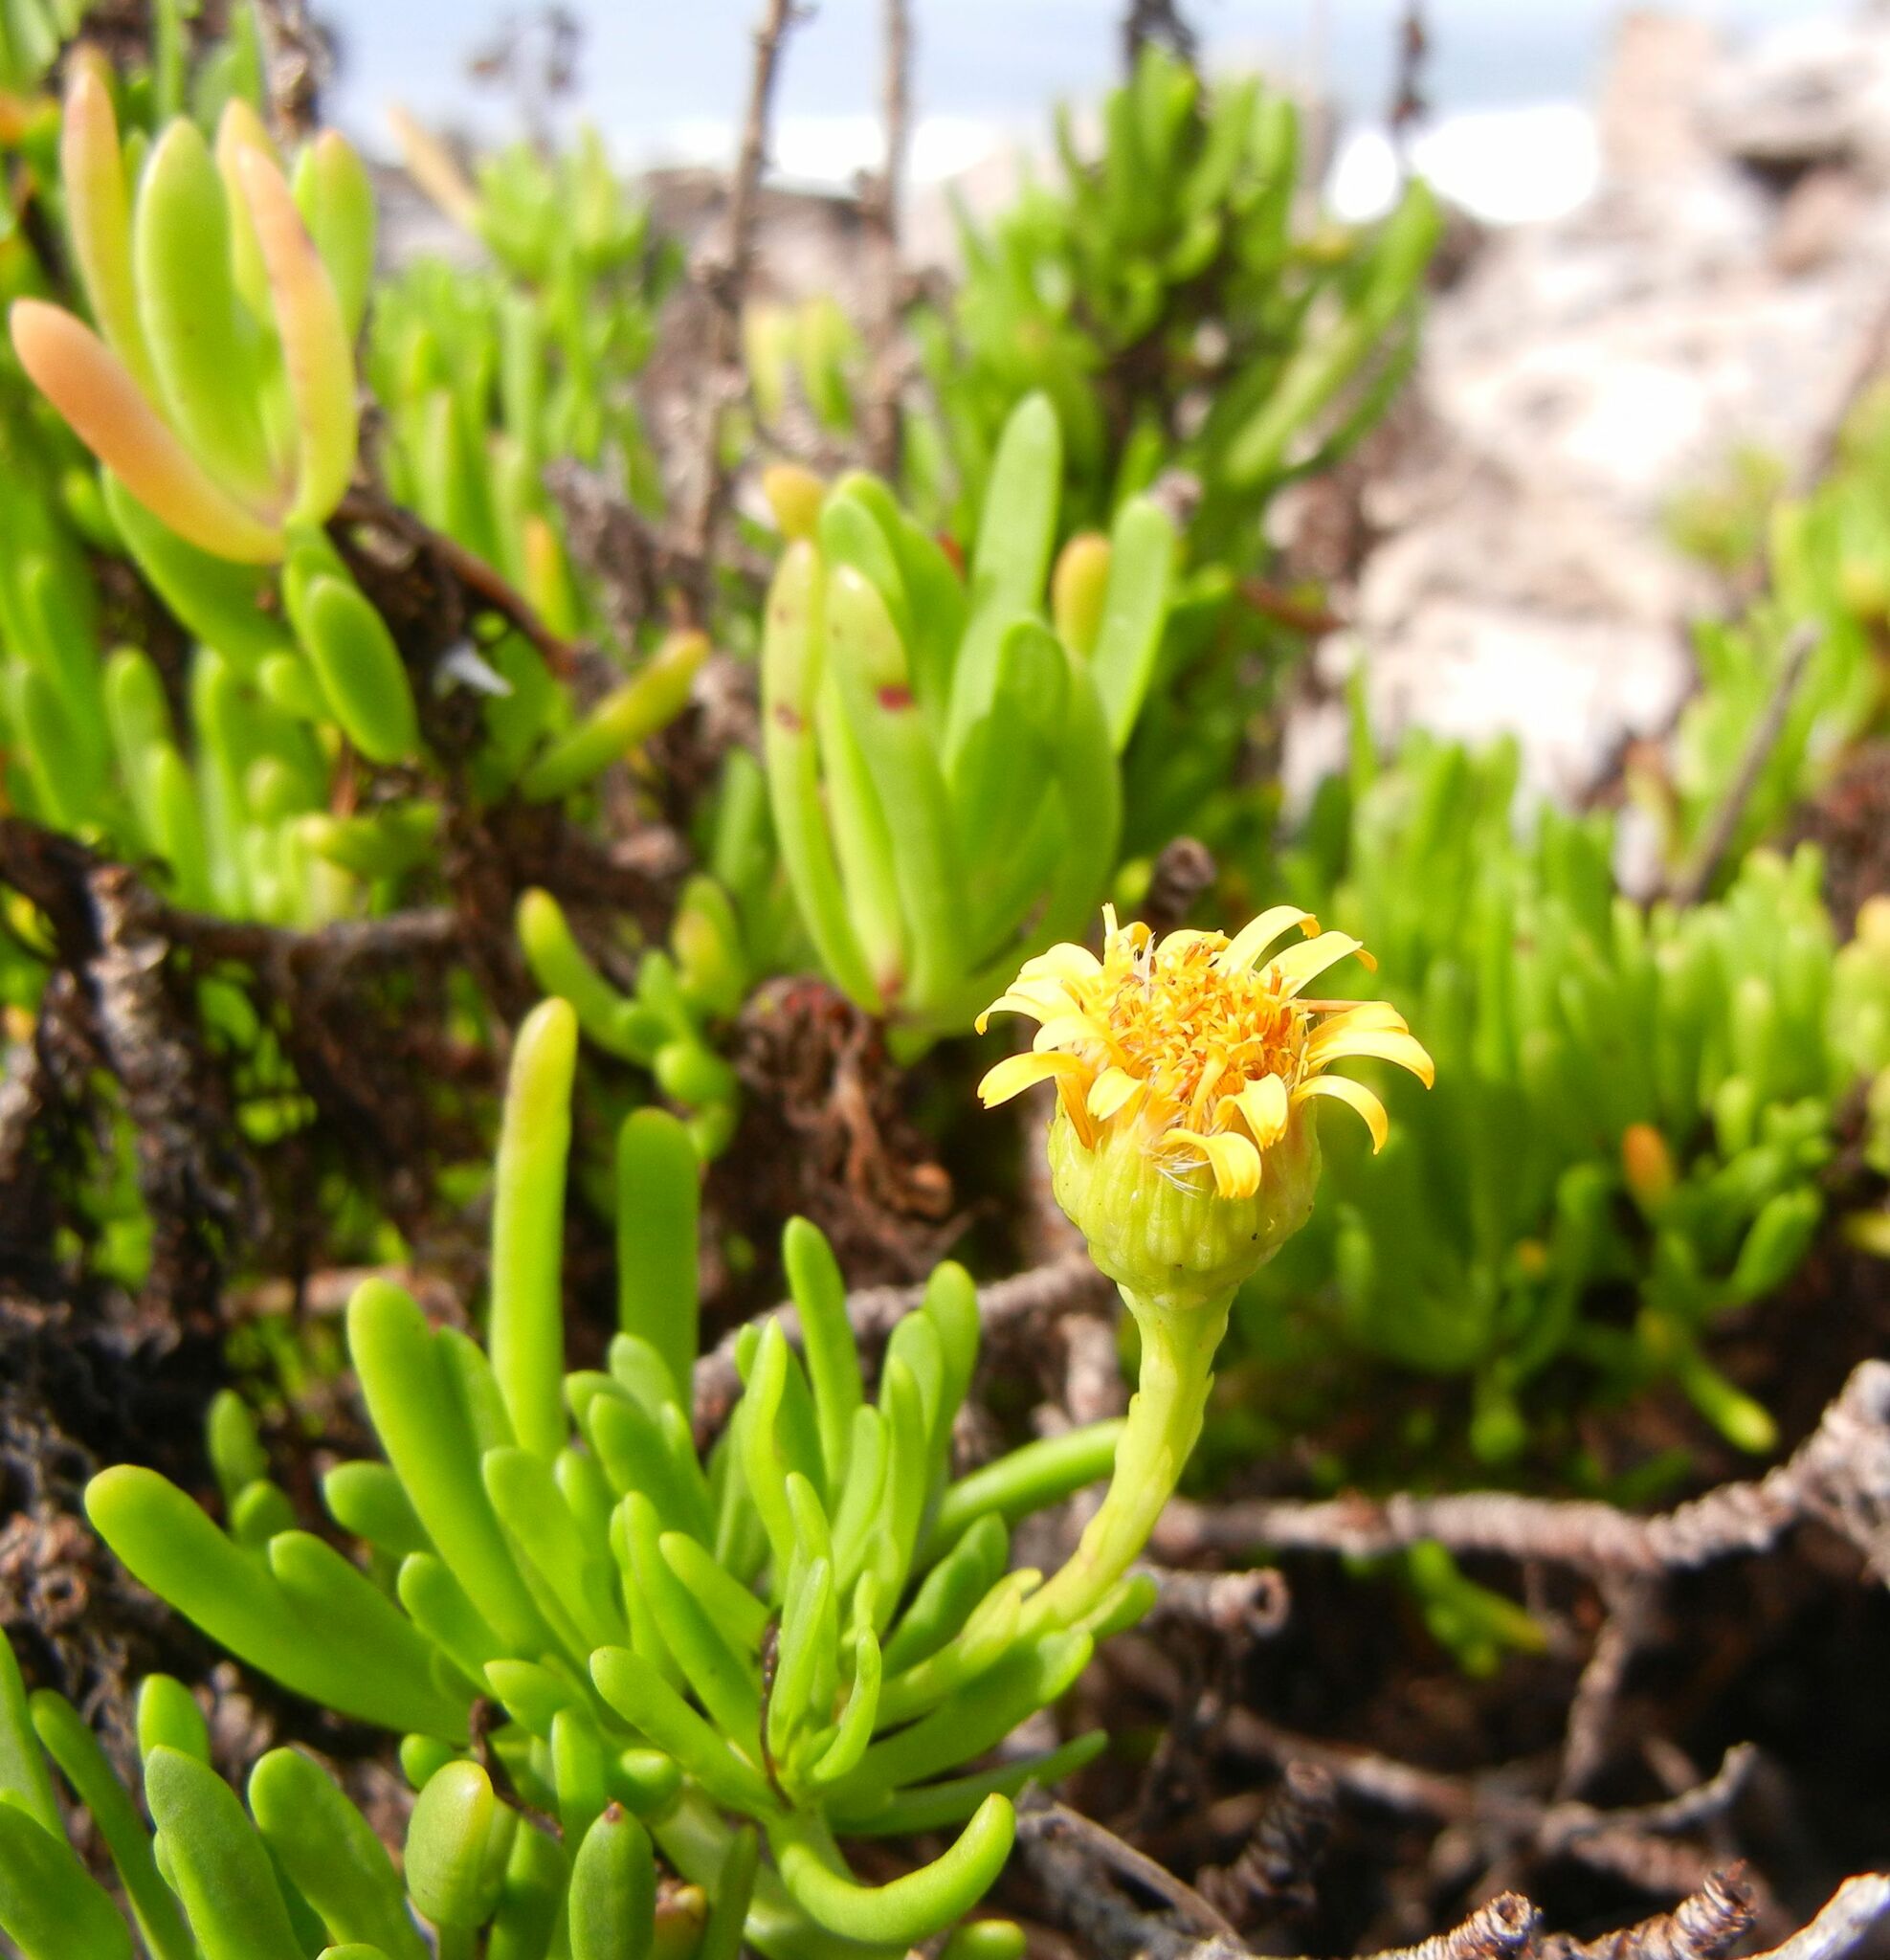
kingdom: Plantae
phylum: Tracheophyta
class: Magnoliopsida
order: Asterales
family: Asteraceae
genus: Limbarda
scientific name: Limbarda crithmoides
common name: Golden samphire
